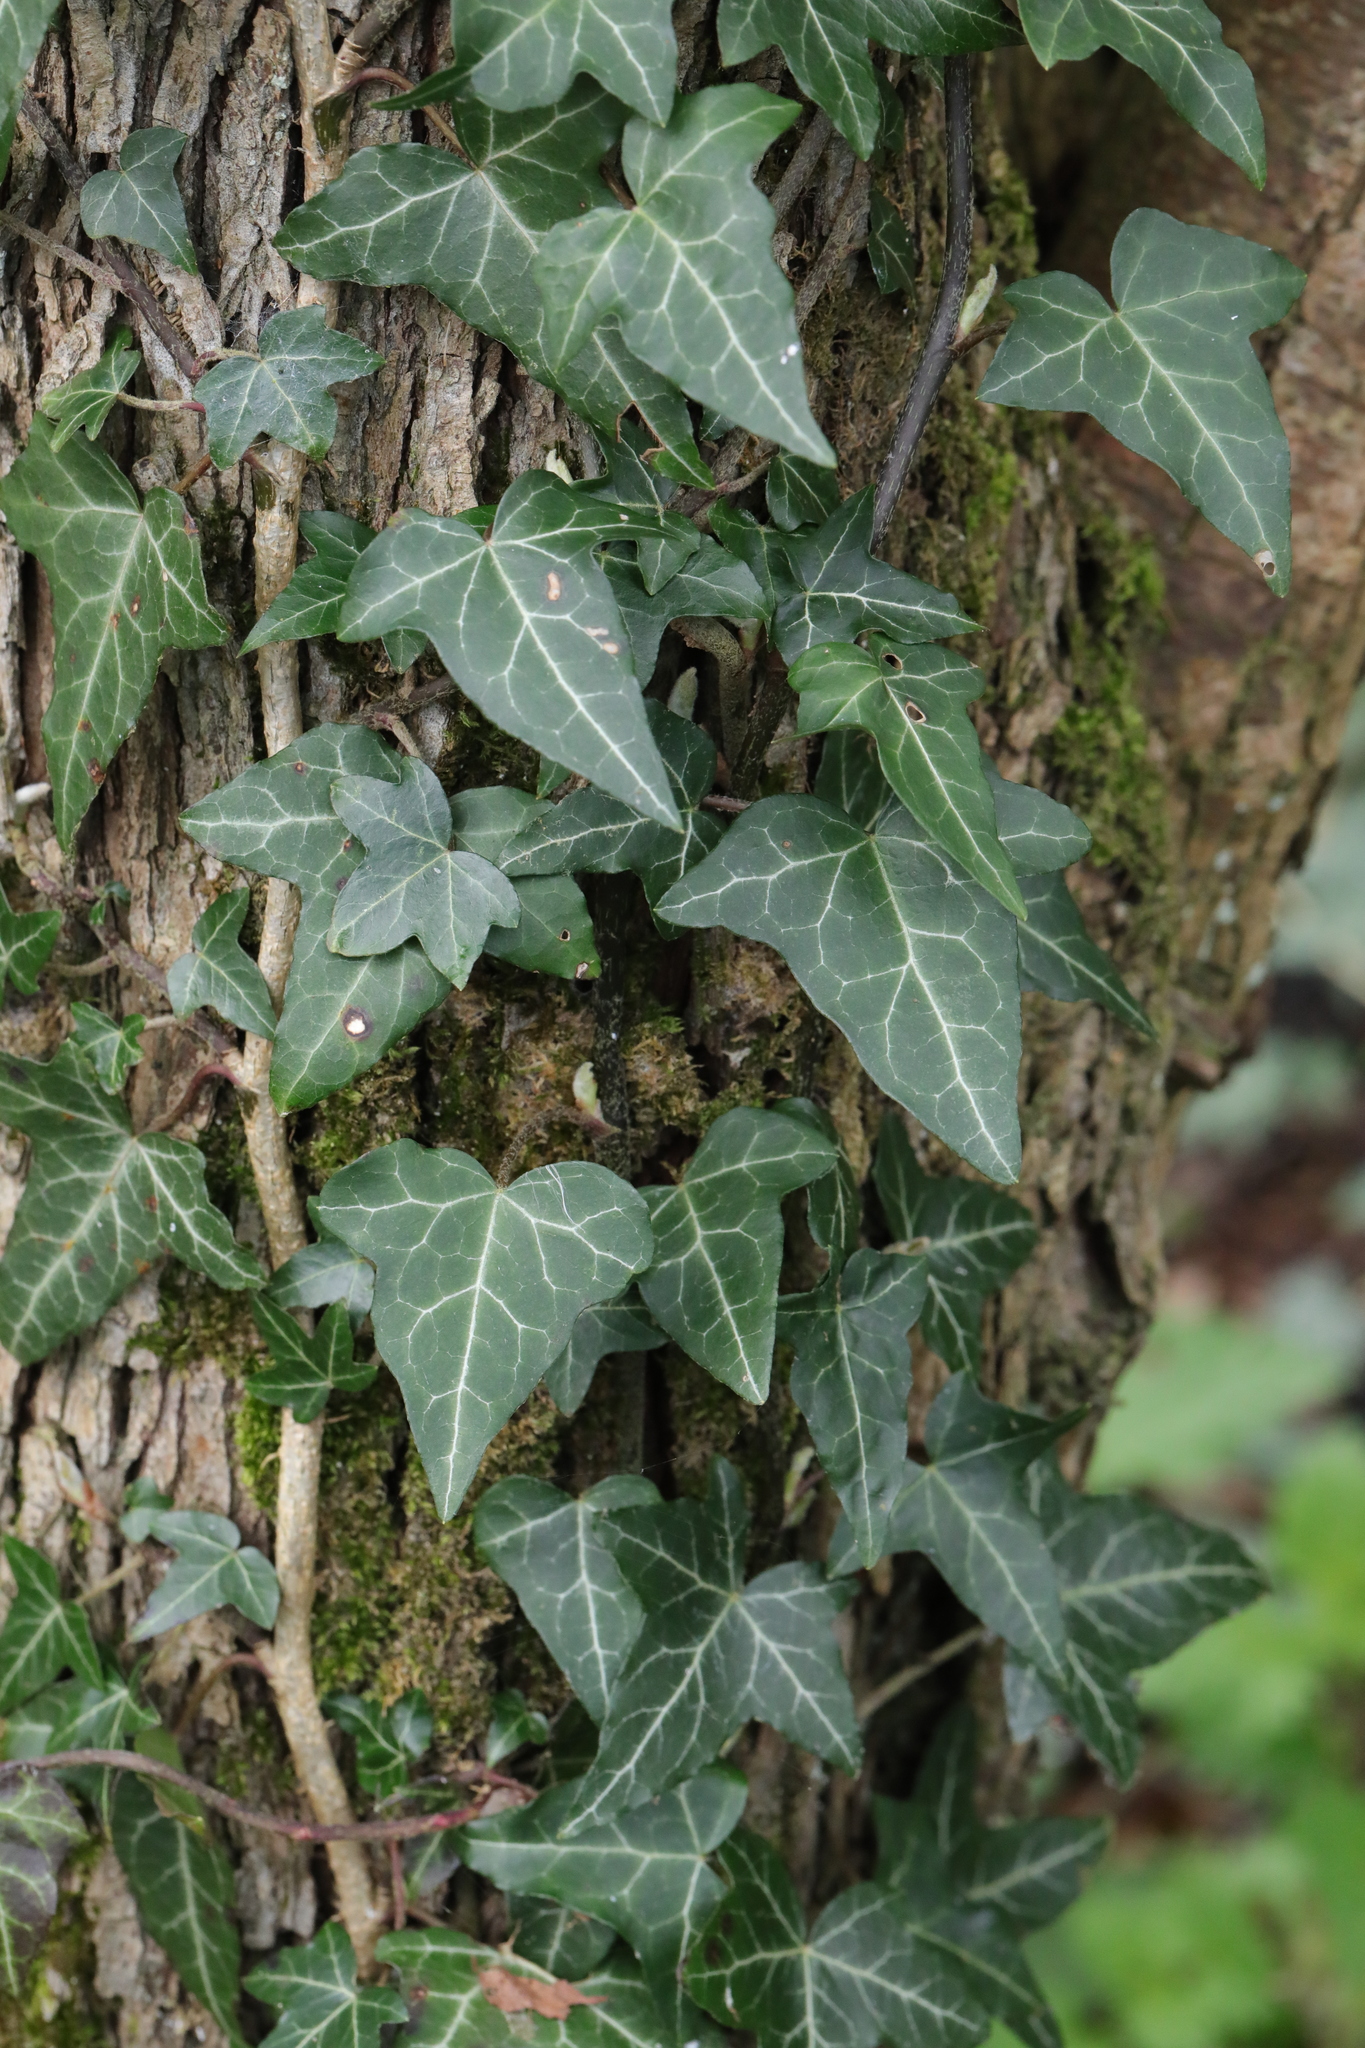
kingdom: Plantae
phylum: Tracheophyta
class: Magnoliopsida
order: Apiales
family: Araliaceae
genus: Hedera
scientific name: Hedera helix
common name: Ivy
